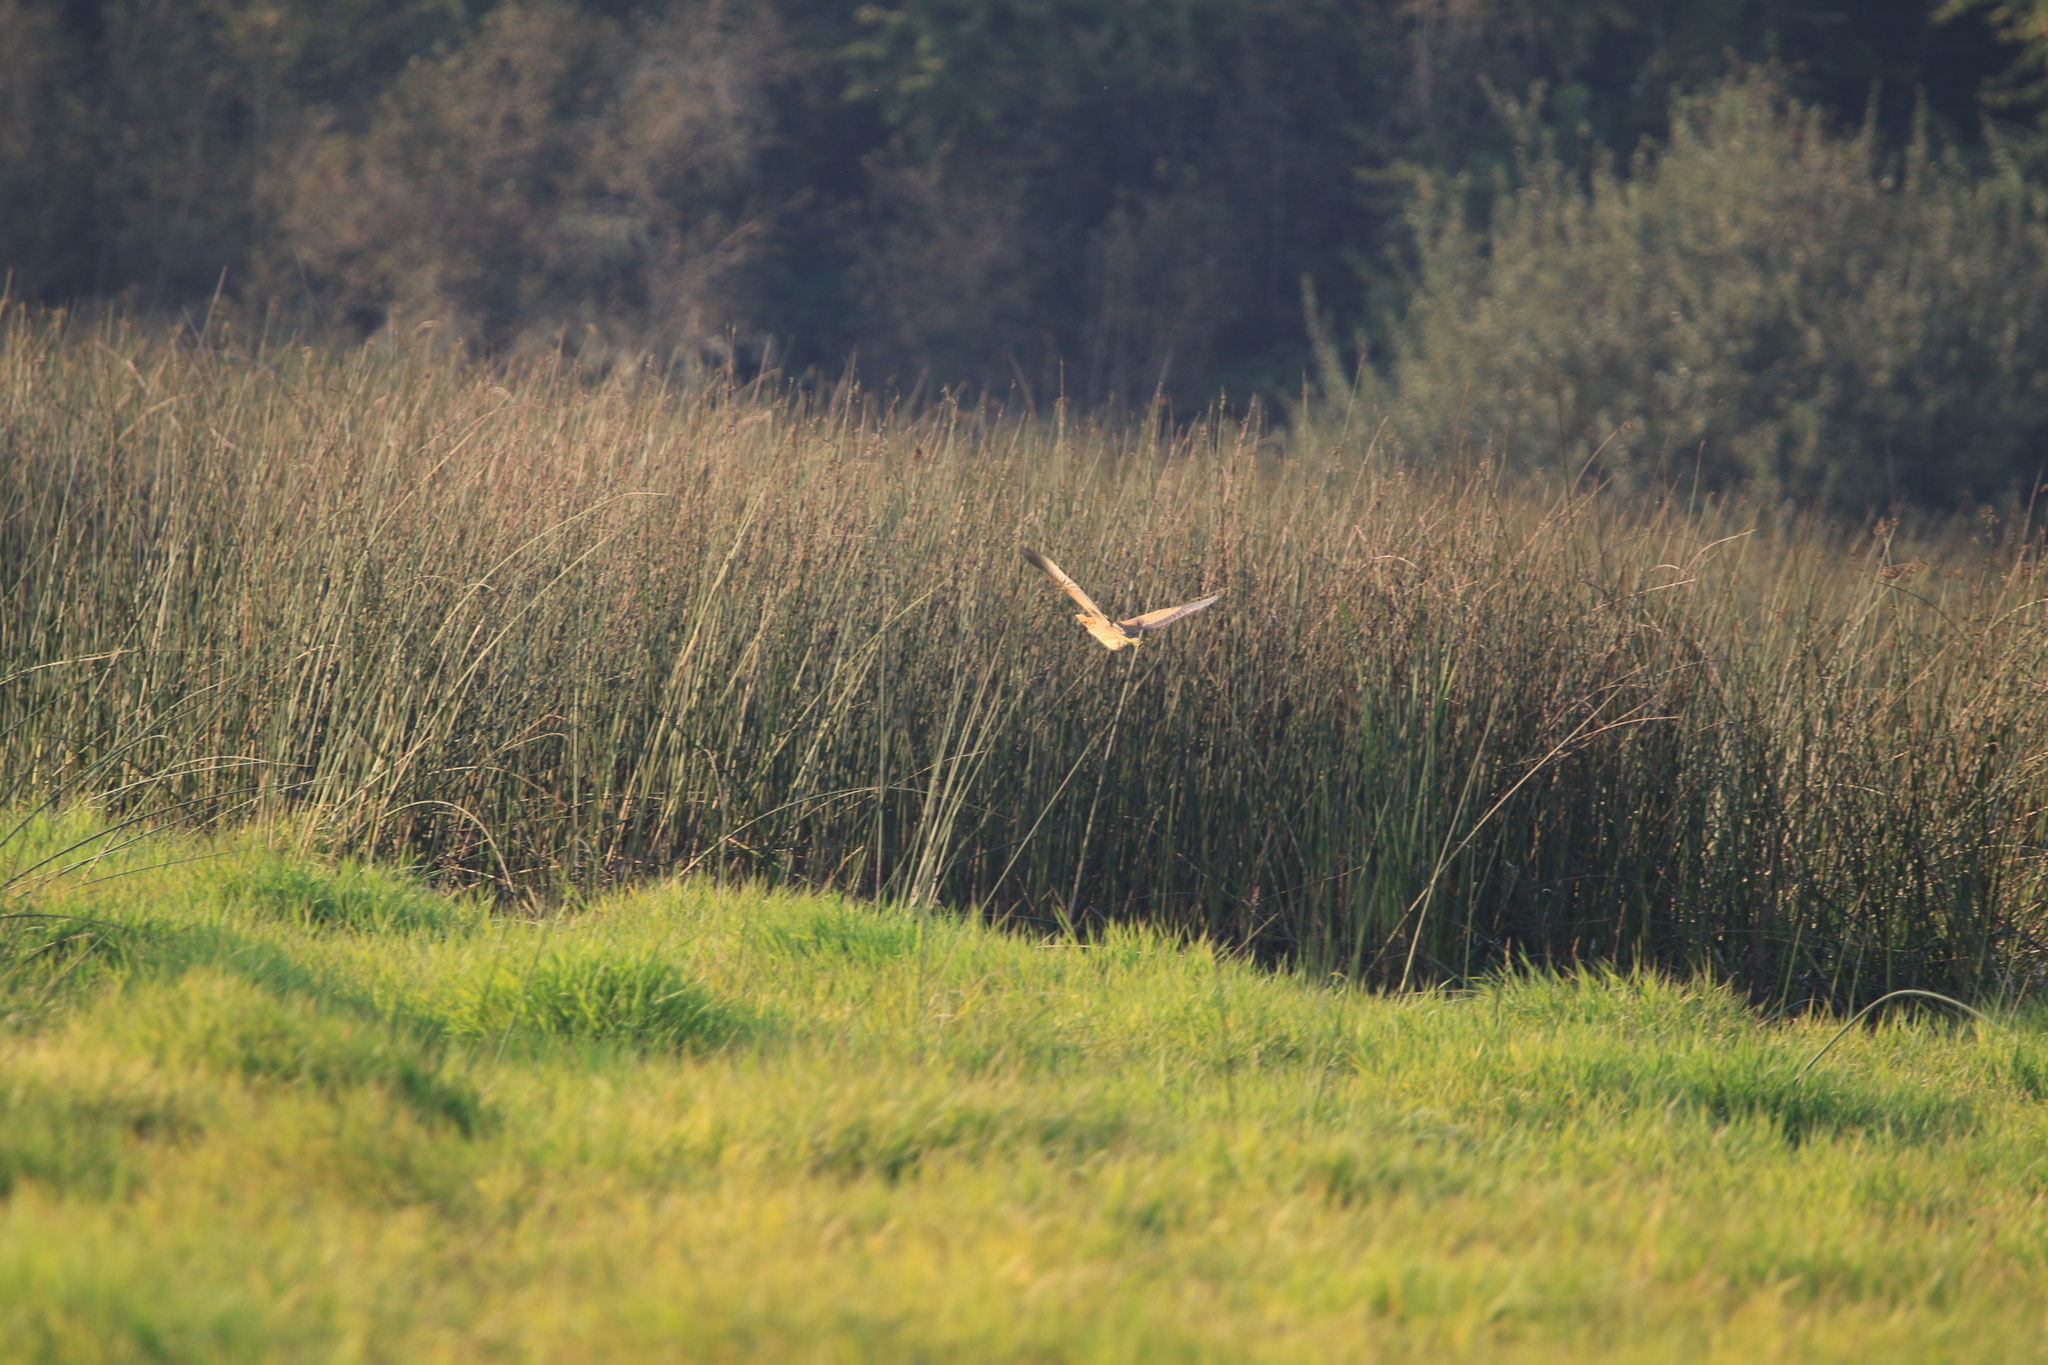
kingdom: Animalia
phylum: Chordata
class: Aves
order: Pelecaniformes
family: Ardeidae
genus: Botaurus
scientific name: Botaurus lentiginosus
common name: American bittern
